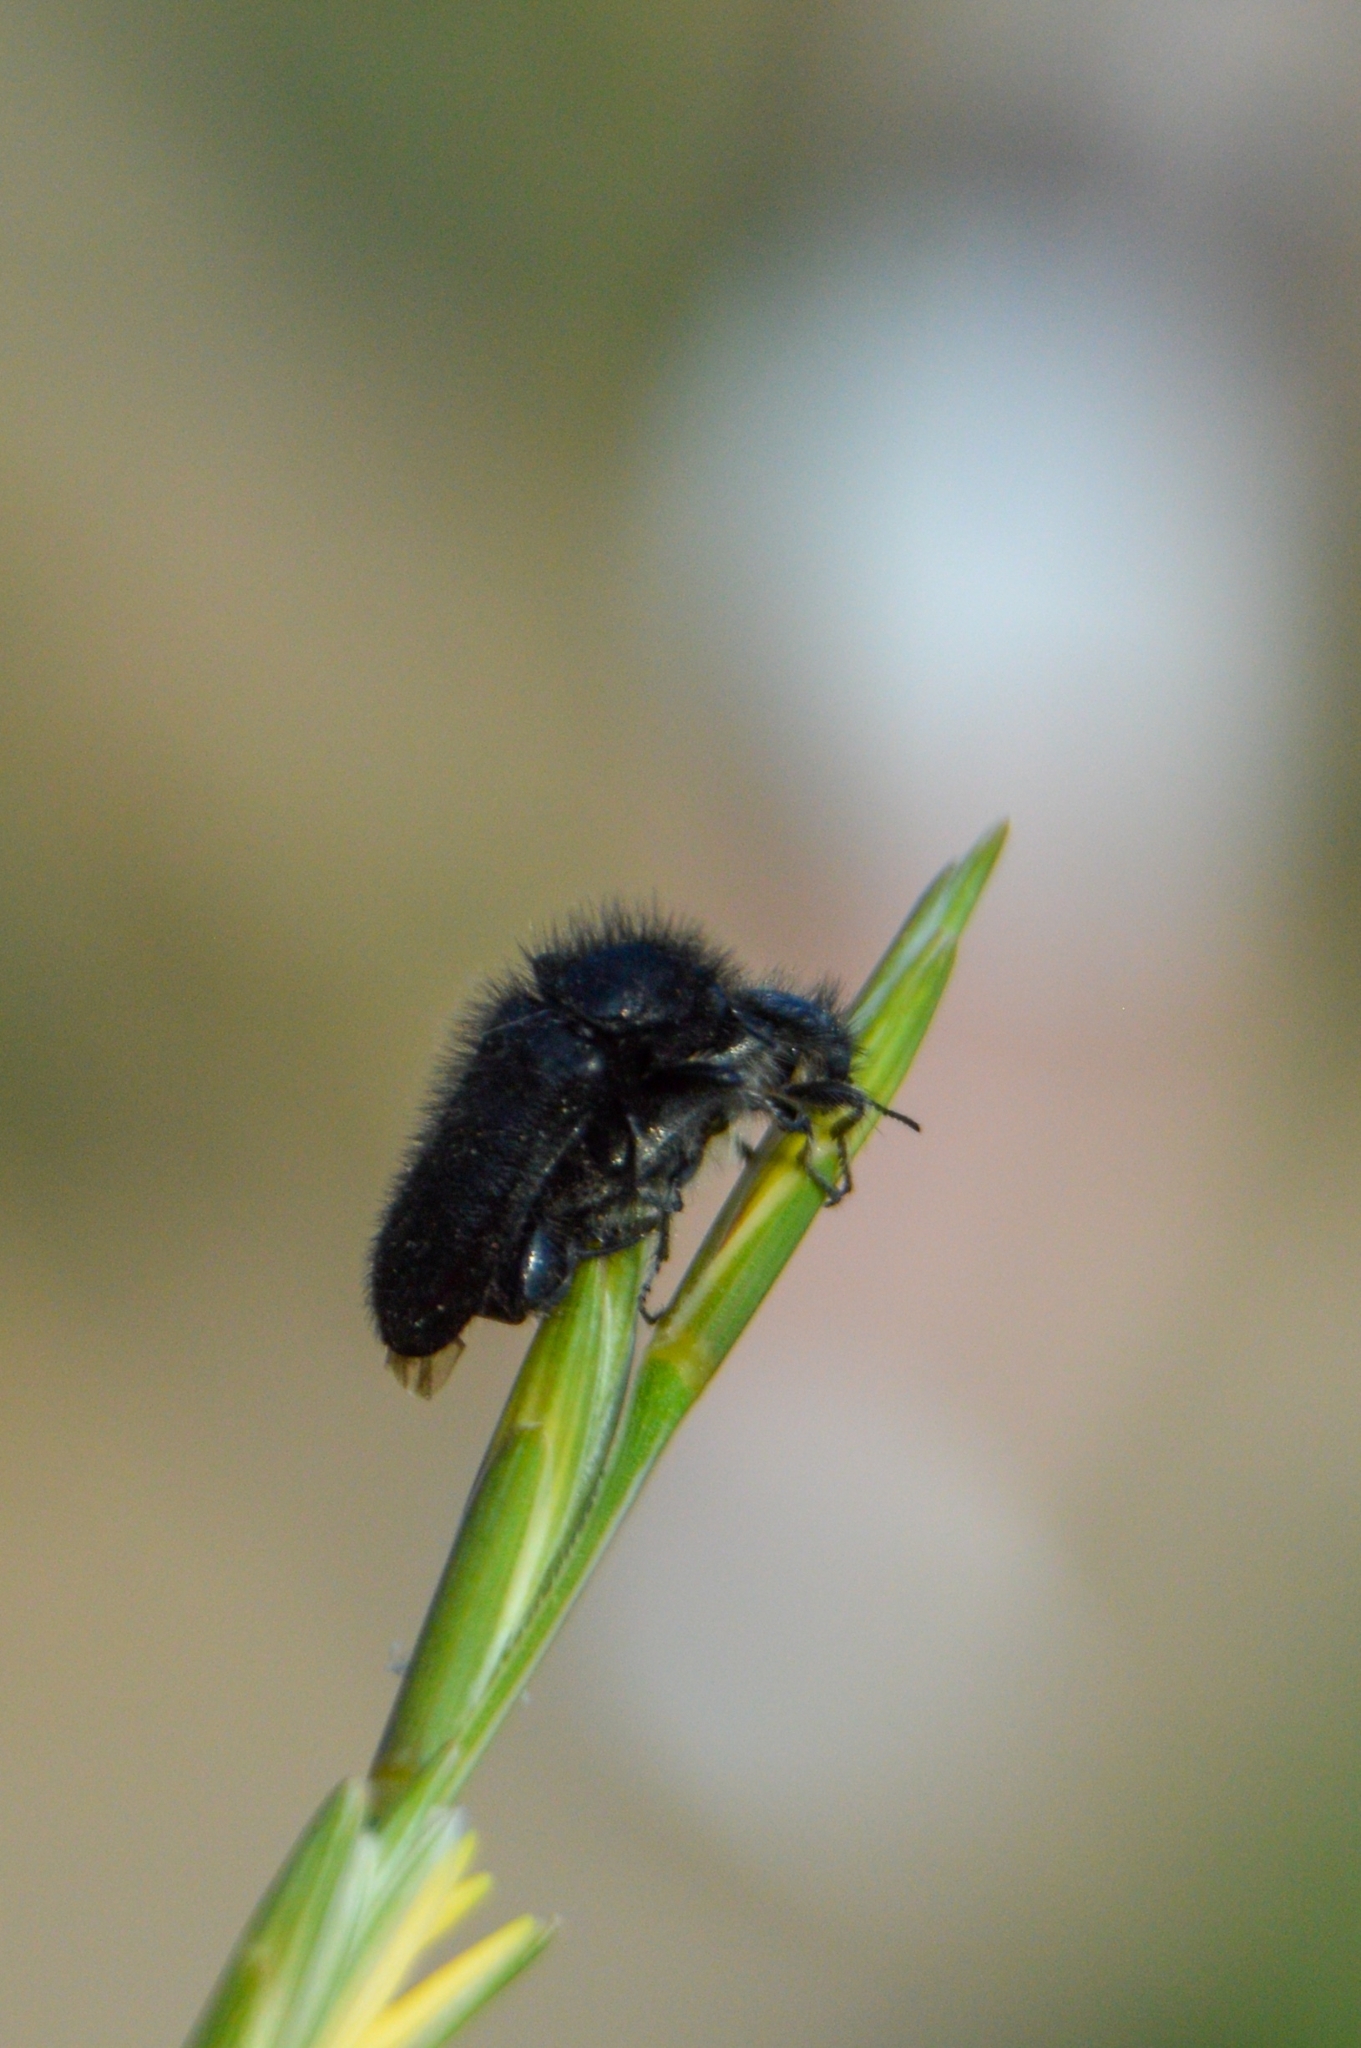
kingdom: Animalia
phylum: Arthropoda
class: Insecta
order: Coleoptera
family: Melyridae
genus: Enicopus
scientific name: Enicopus ater
